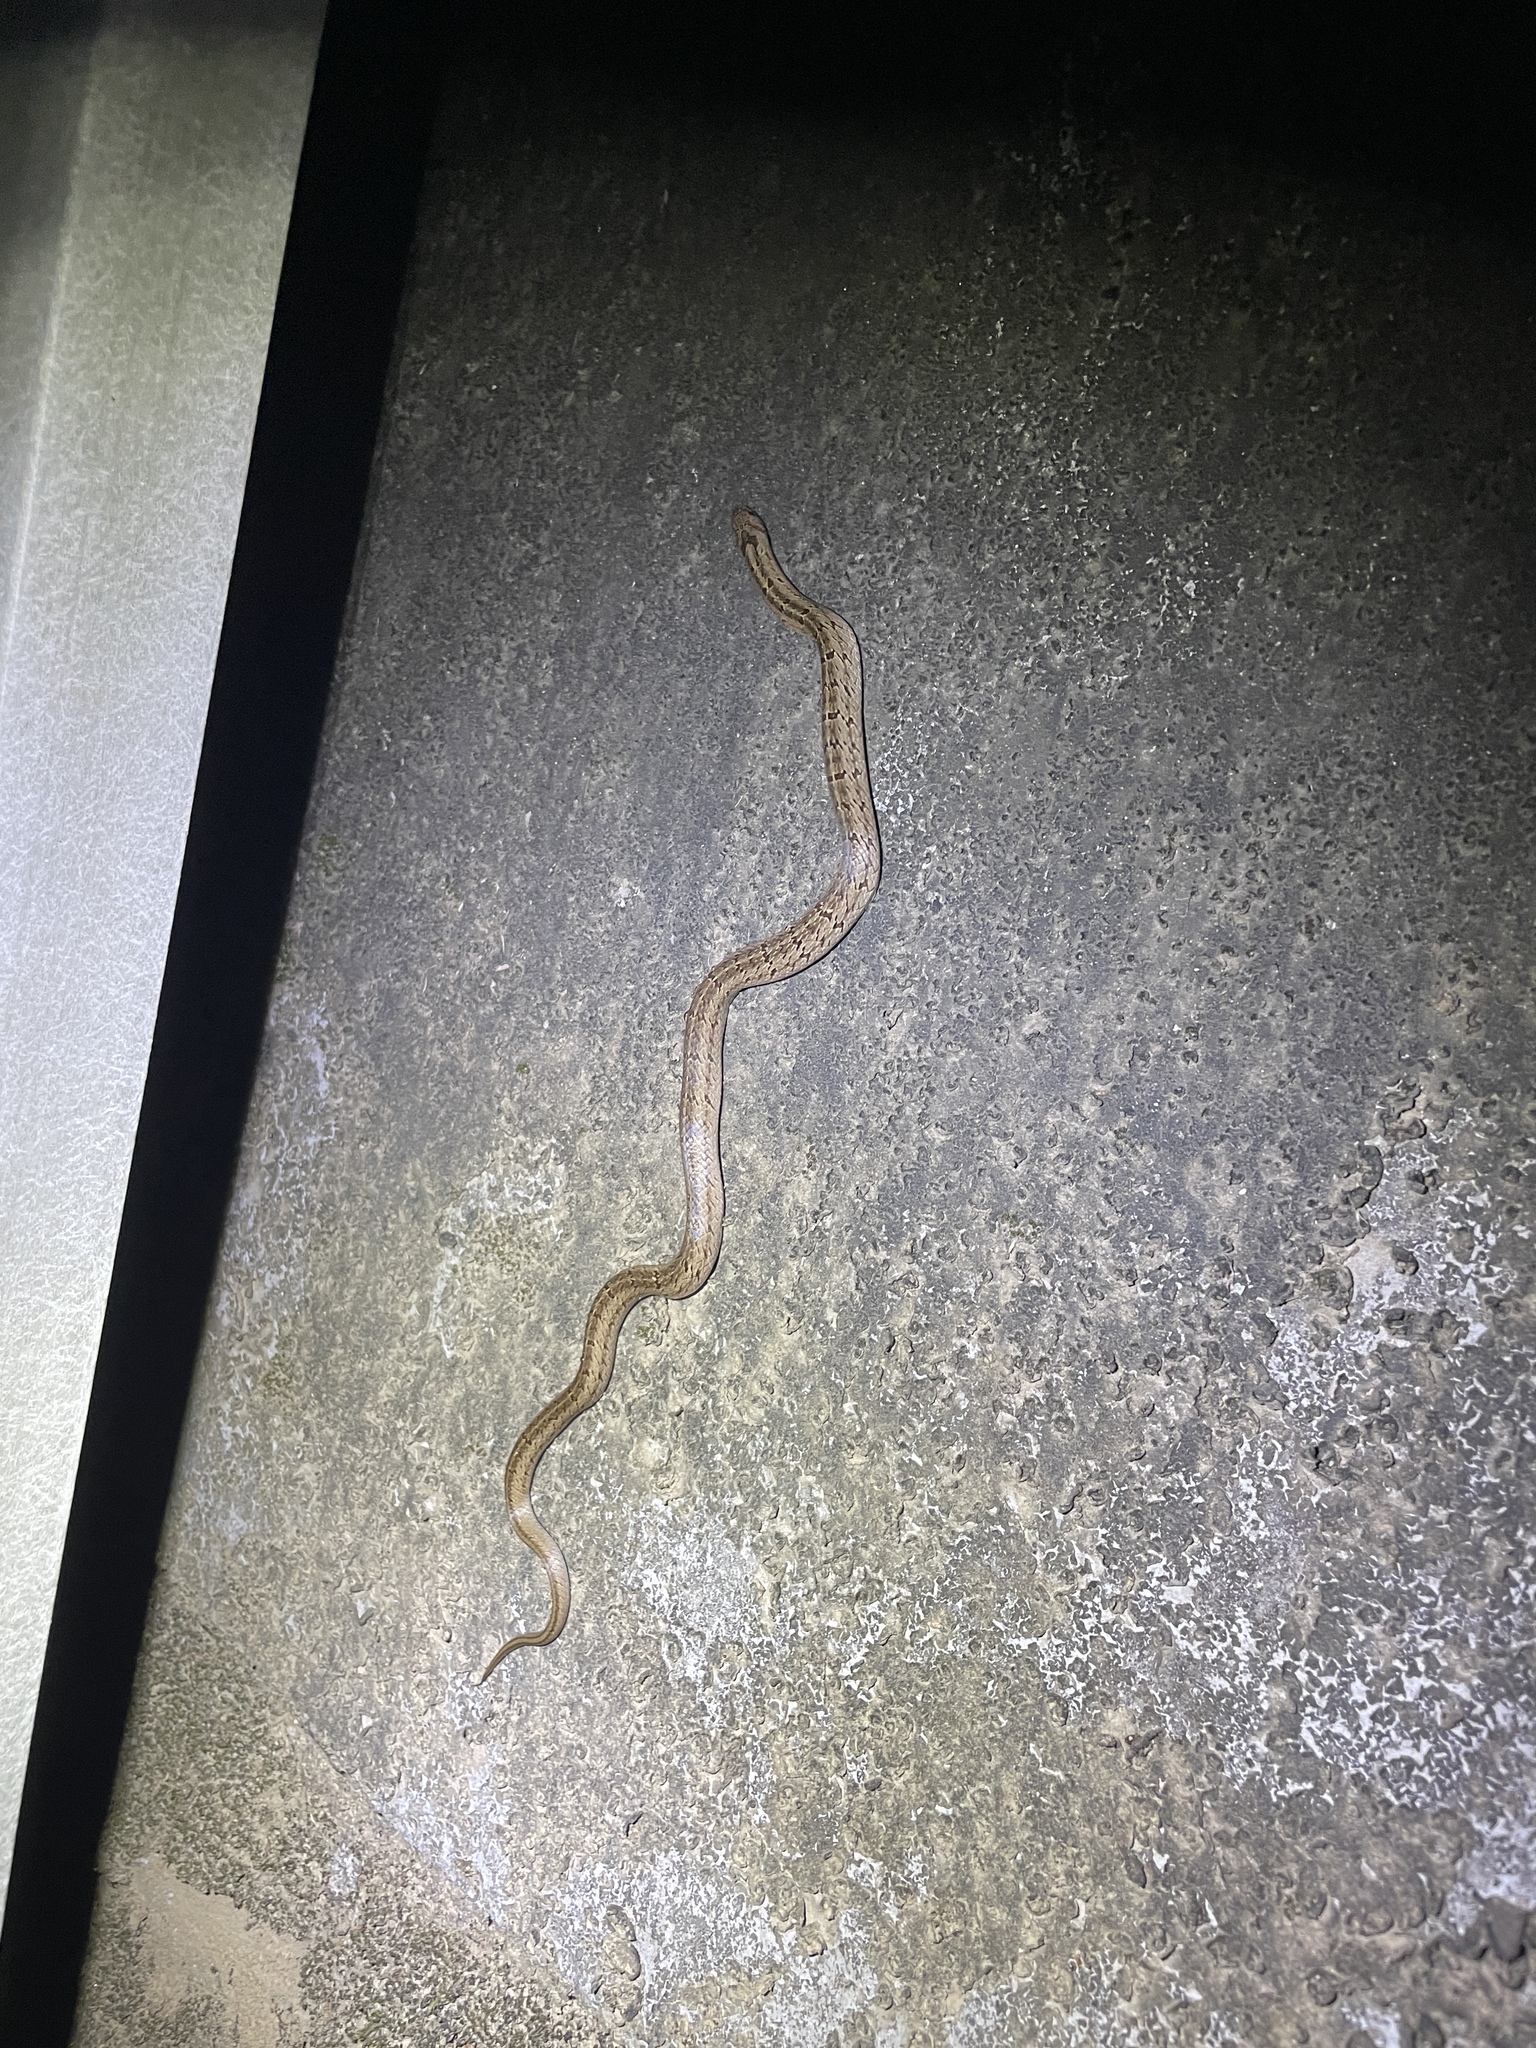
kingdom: Animalia
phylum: Chordata
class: Squamata
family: Colubridae
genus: Oligodon
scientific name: Oligodon formosanus
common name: Formosa kukri snake
